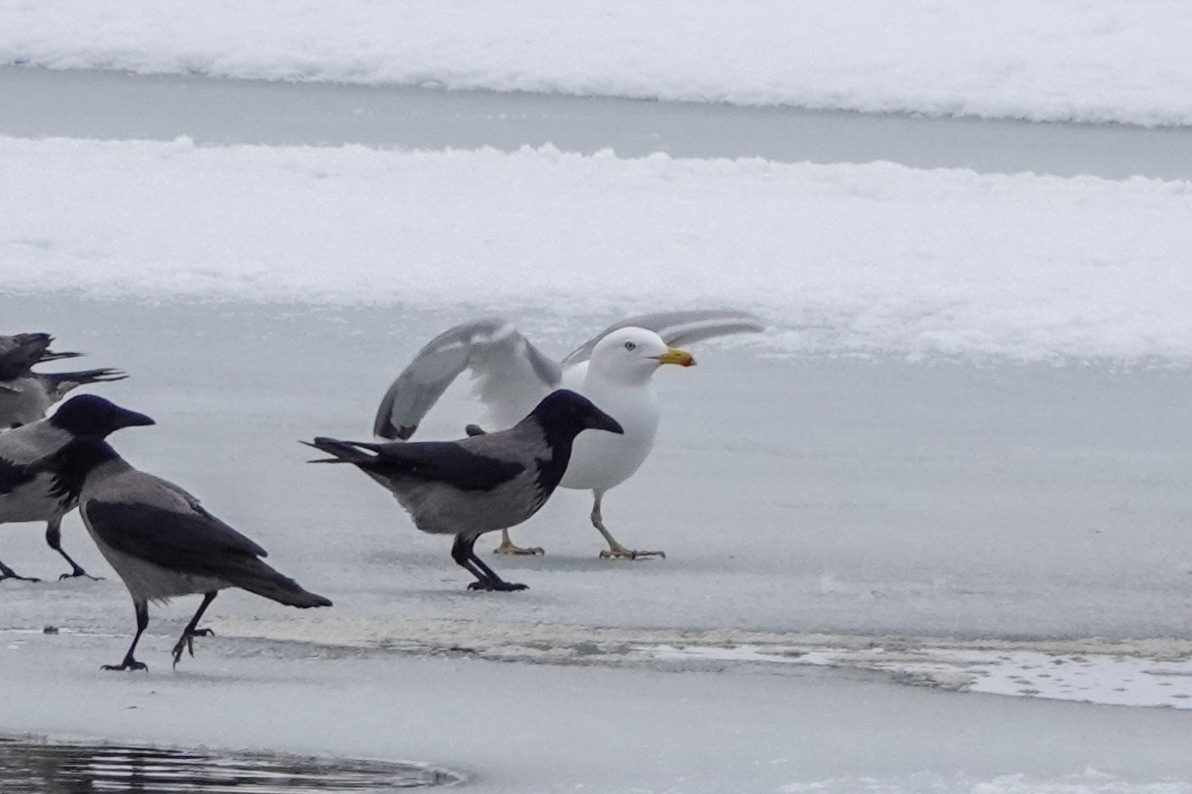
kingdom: Animalia
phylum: Chordata
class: Aves
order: Charadriiformes
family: Laridae
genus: Larus
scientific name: Larus argentatus
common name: Herring gull
